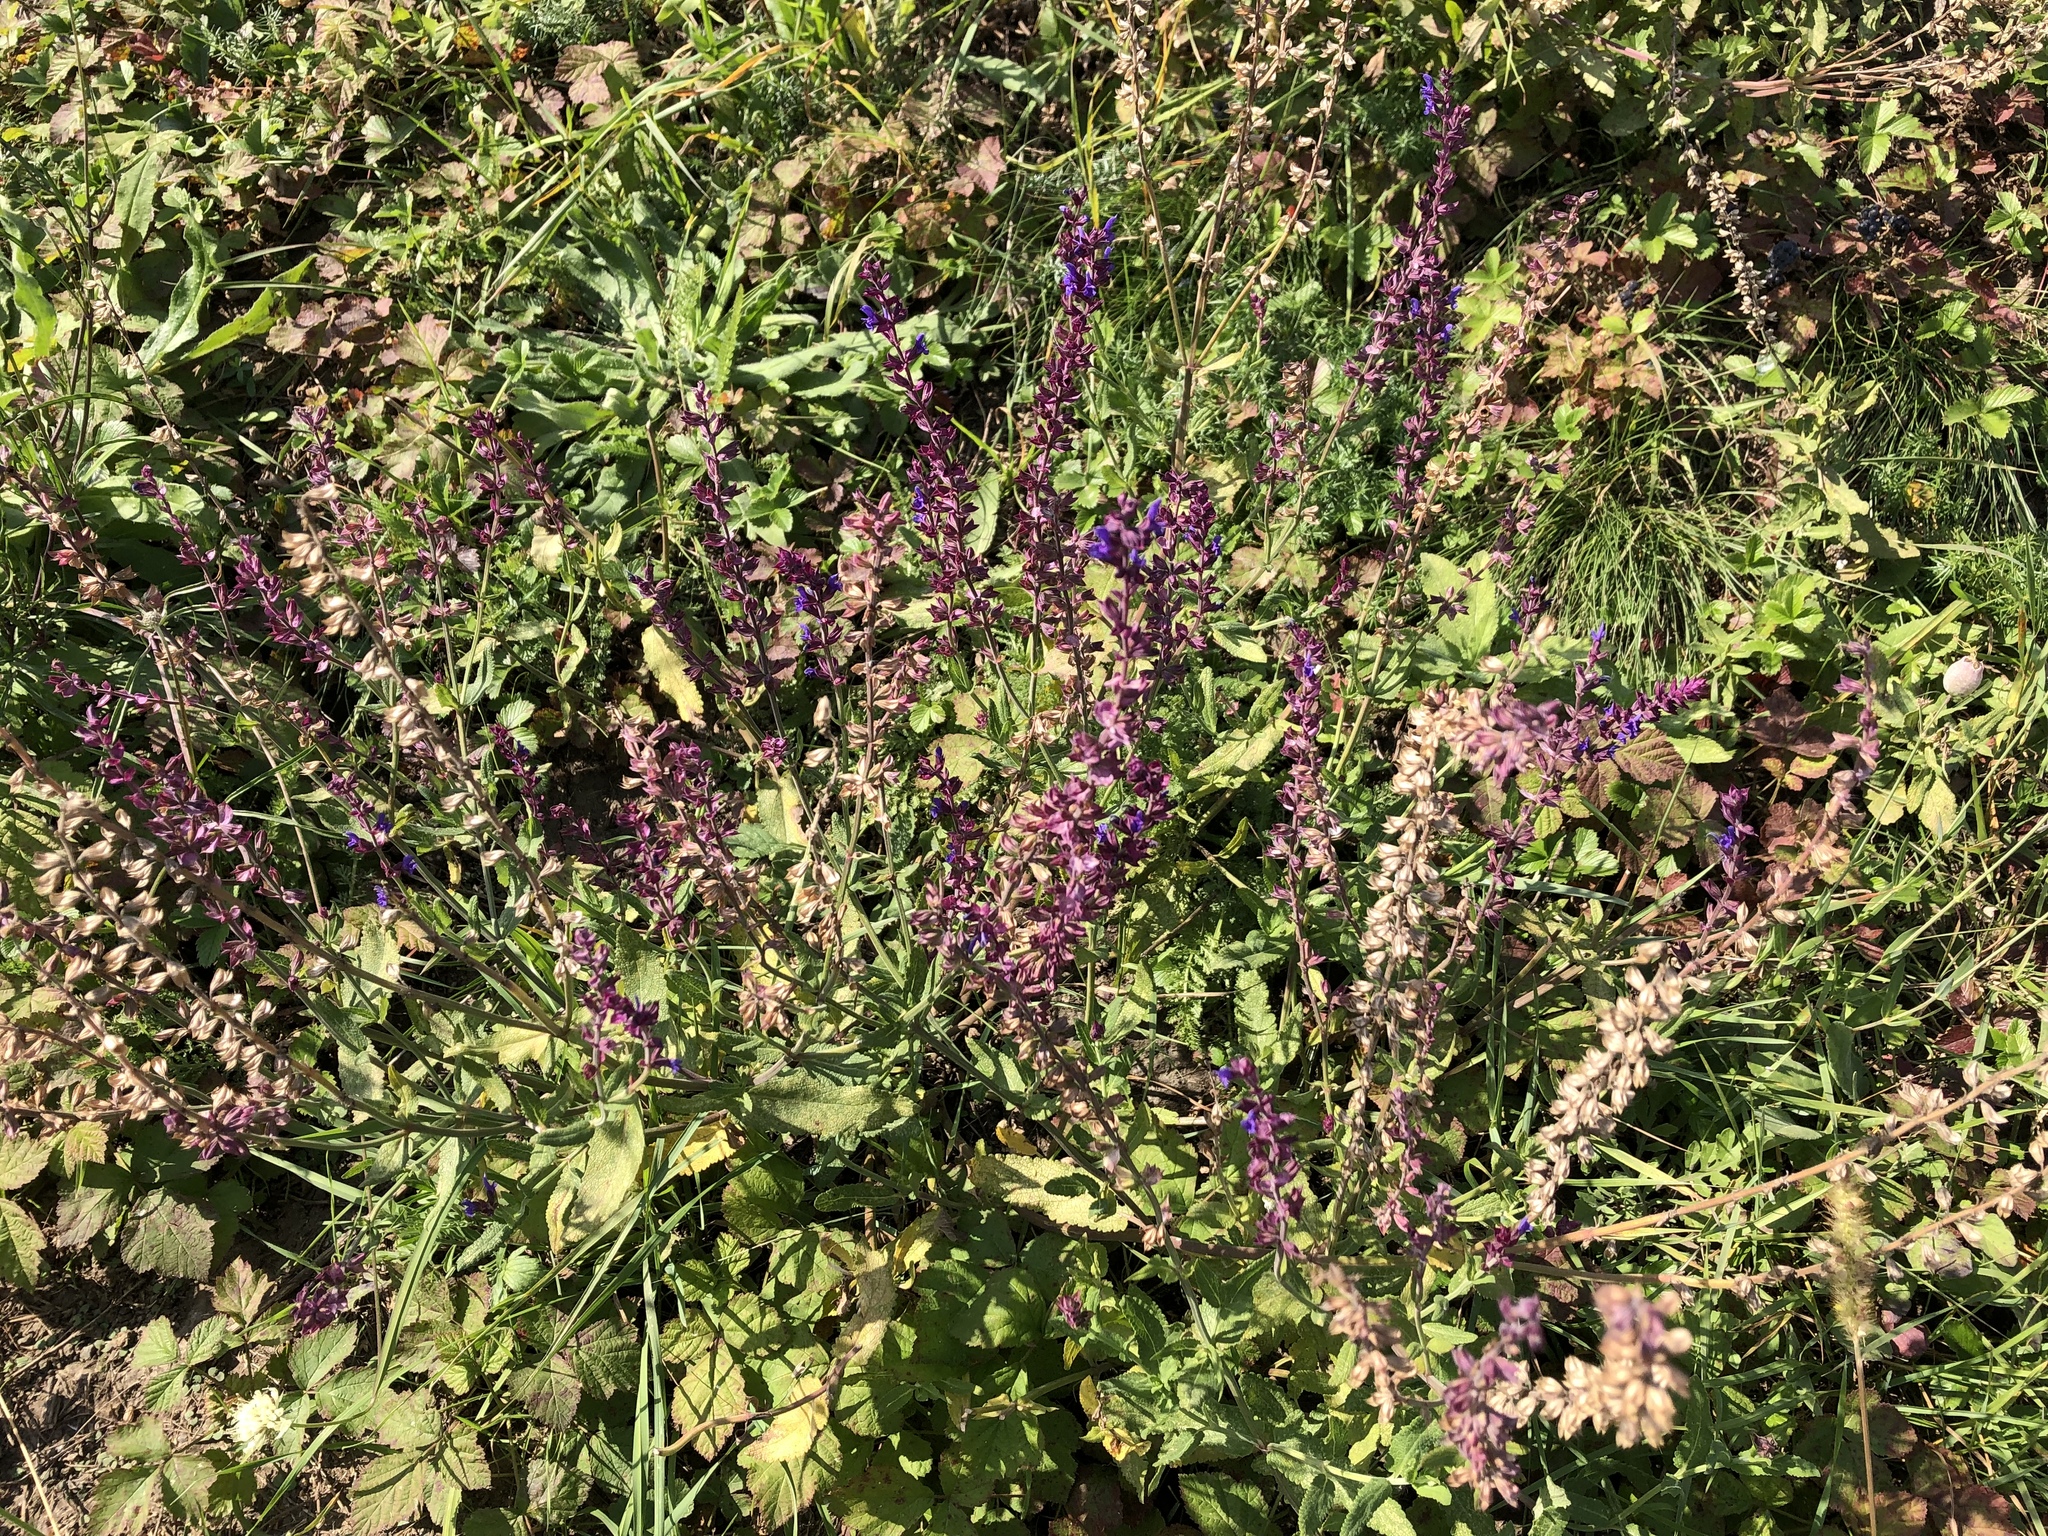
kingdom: Plantae
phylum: Tracheophyta
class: Magnoliopsida
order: Lamiales
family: Lamiaceae
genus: Salvia
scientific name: Salvia nemorosa
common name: Balkan clary
